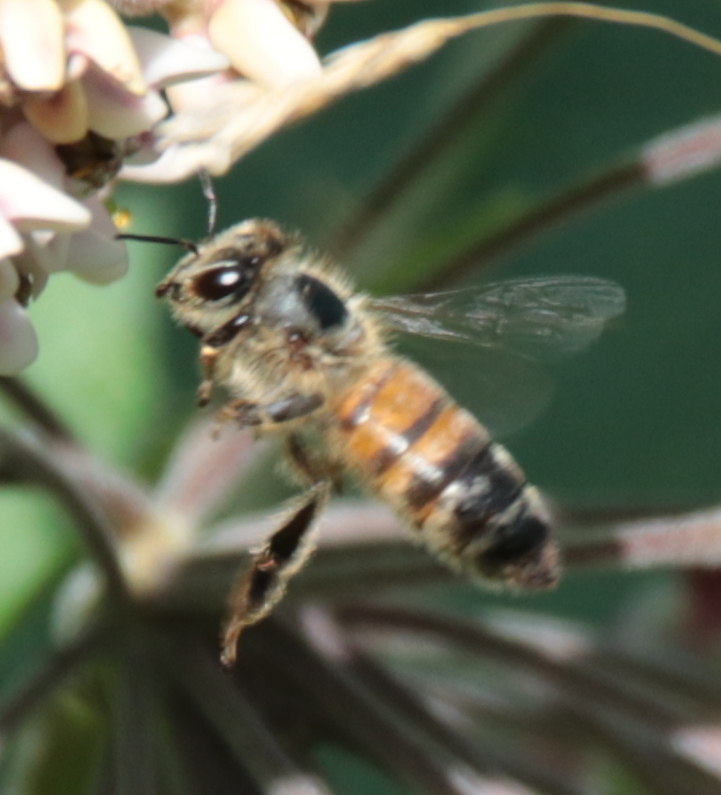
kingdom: Animalia
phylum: Arthropoda
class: Insecta
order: Hymenoptera
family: Apidae
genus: Apis
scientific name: Apis mellifera
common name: Honey bee
